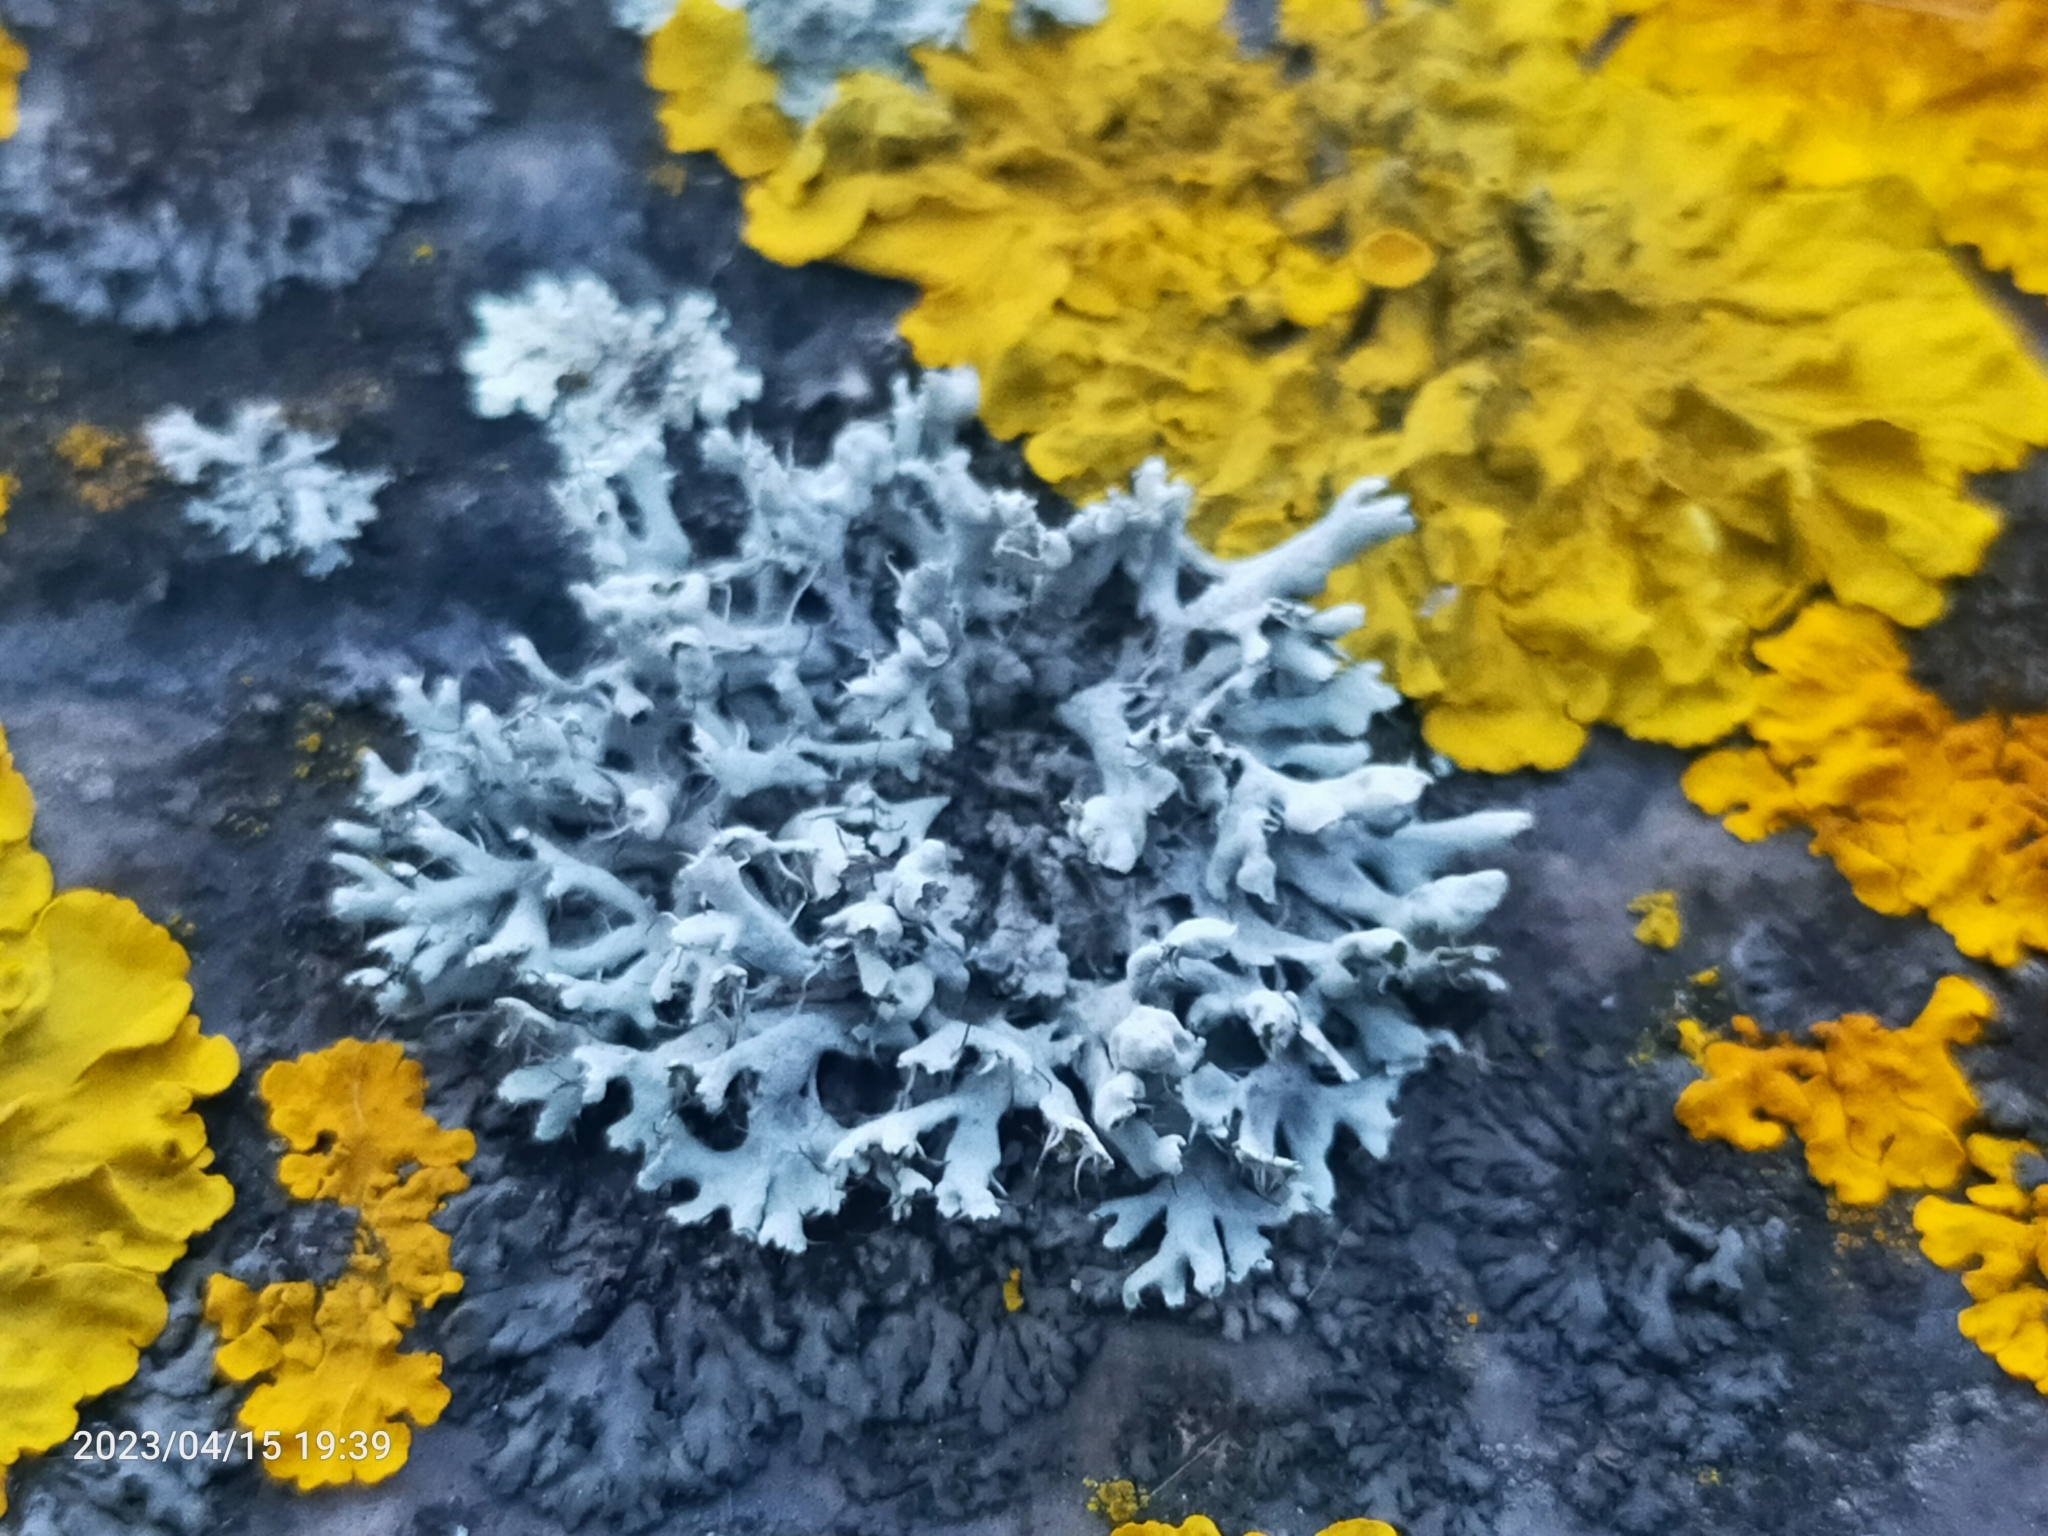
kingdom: Fungi
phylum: Ascomycota
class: Lecanoromycetes
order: Caliciales
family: Physciaceae
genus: Physcia
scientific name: Physcia adscendens
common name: Hooded rosette lichen
